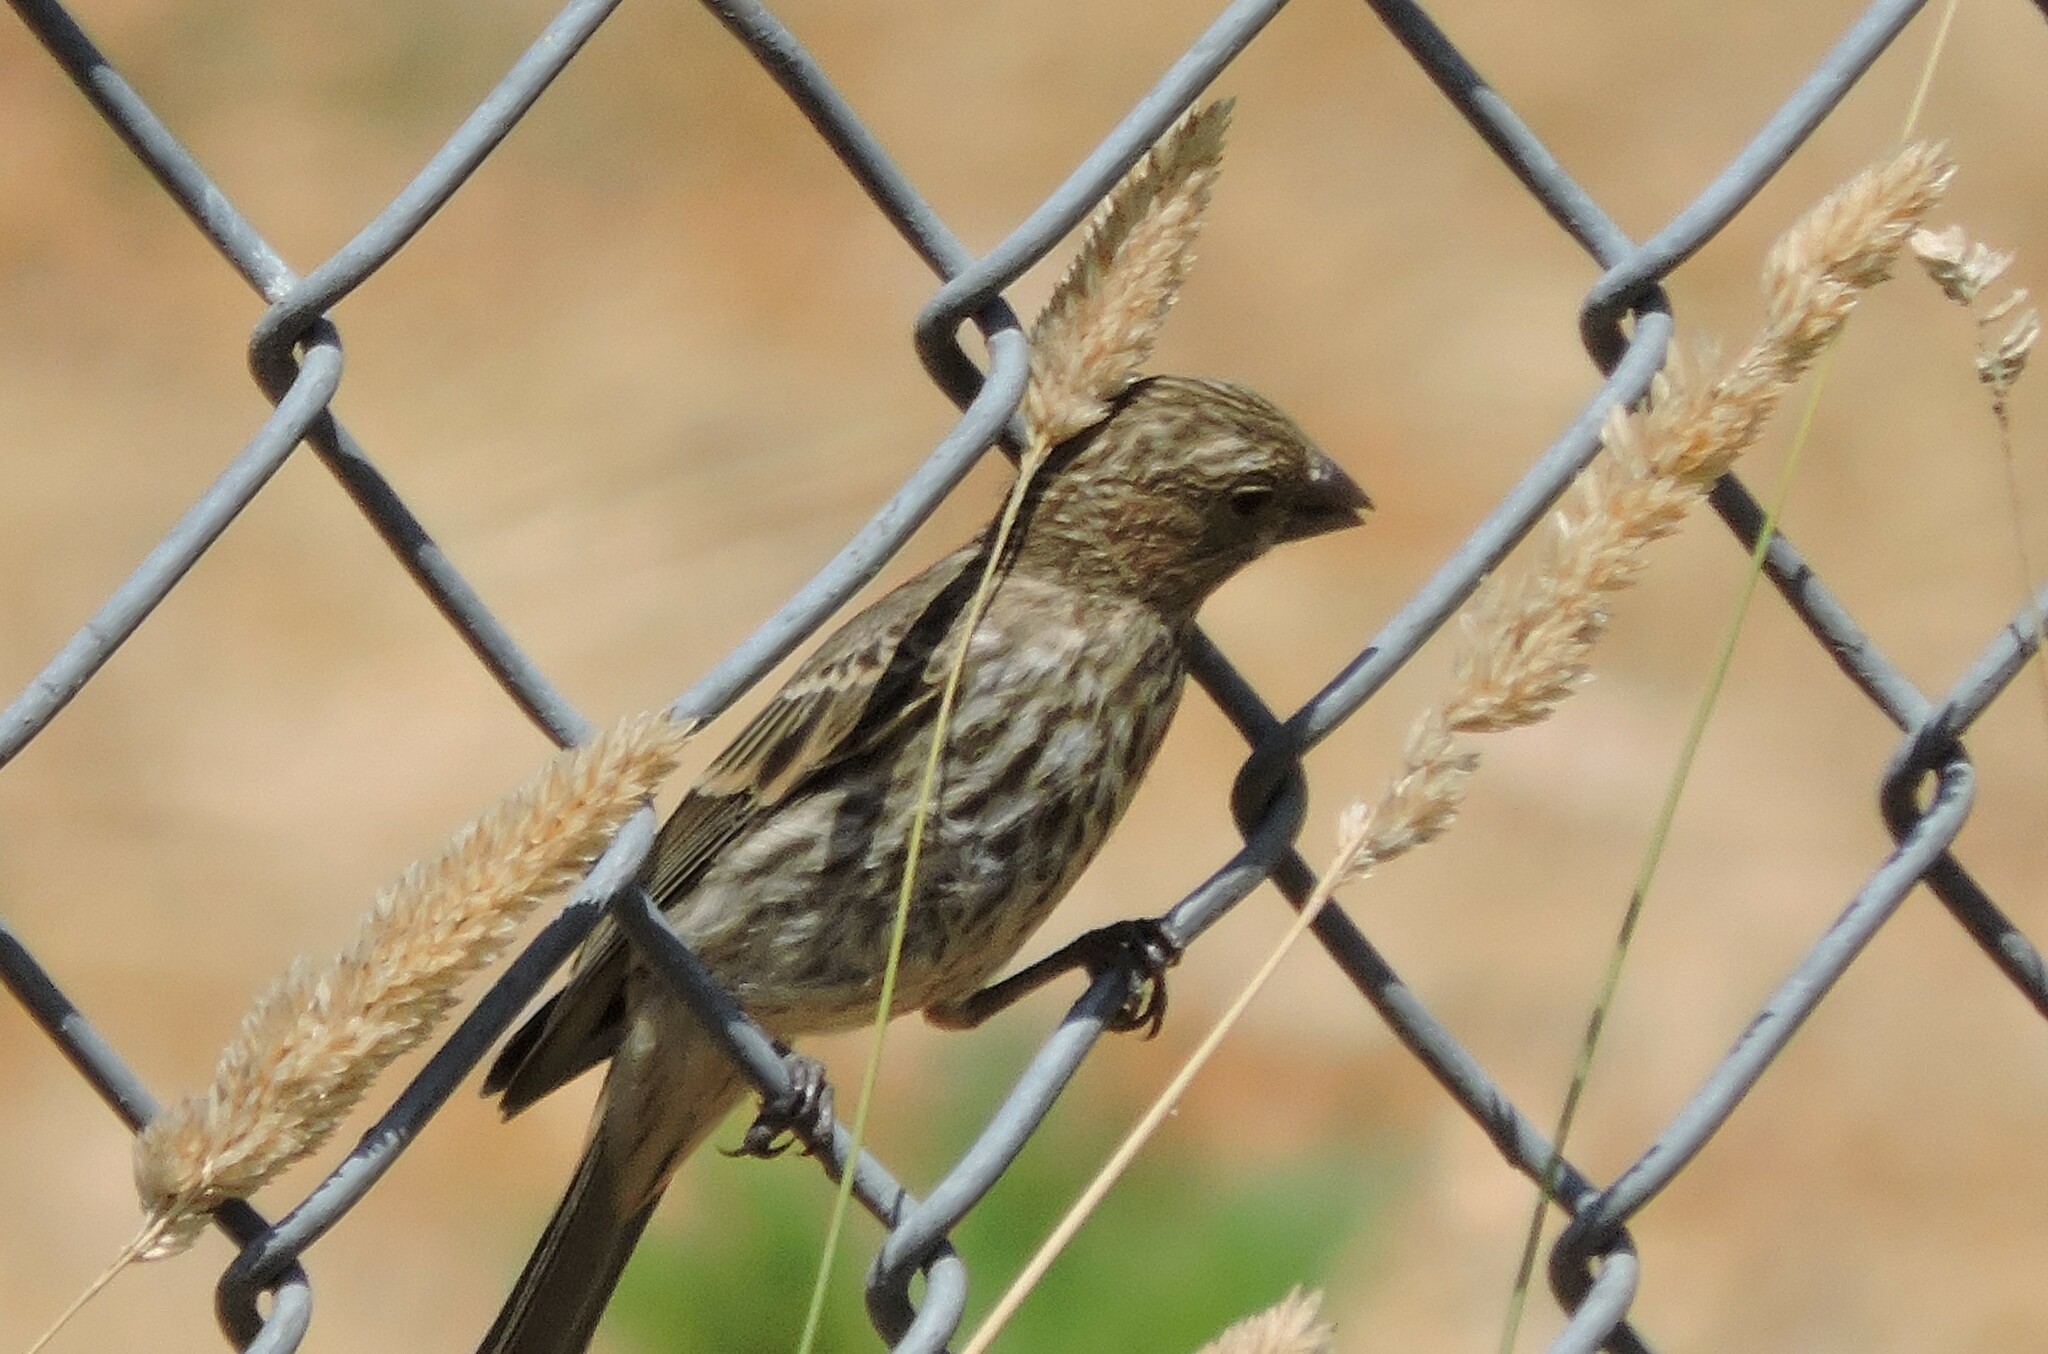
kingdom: Animalia
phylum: Chordata
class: Aves
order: Passeriformes
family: Fringillidae
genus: Haemorhous
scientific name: Haemorhous mexicanus
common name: House finch
